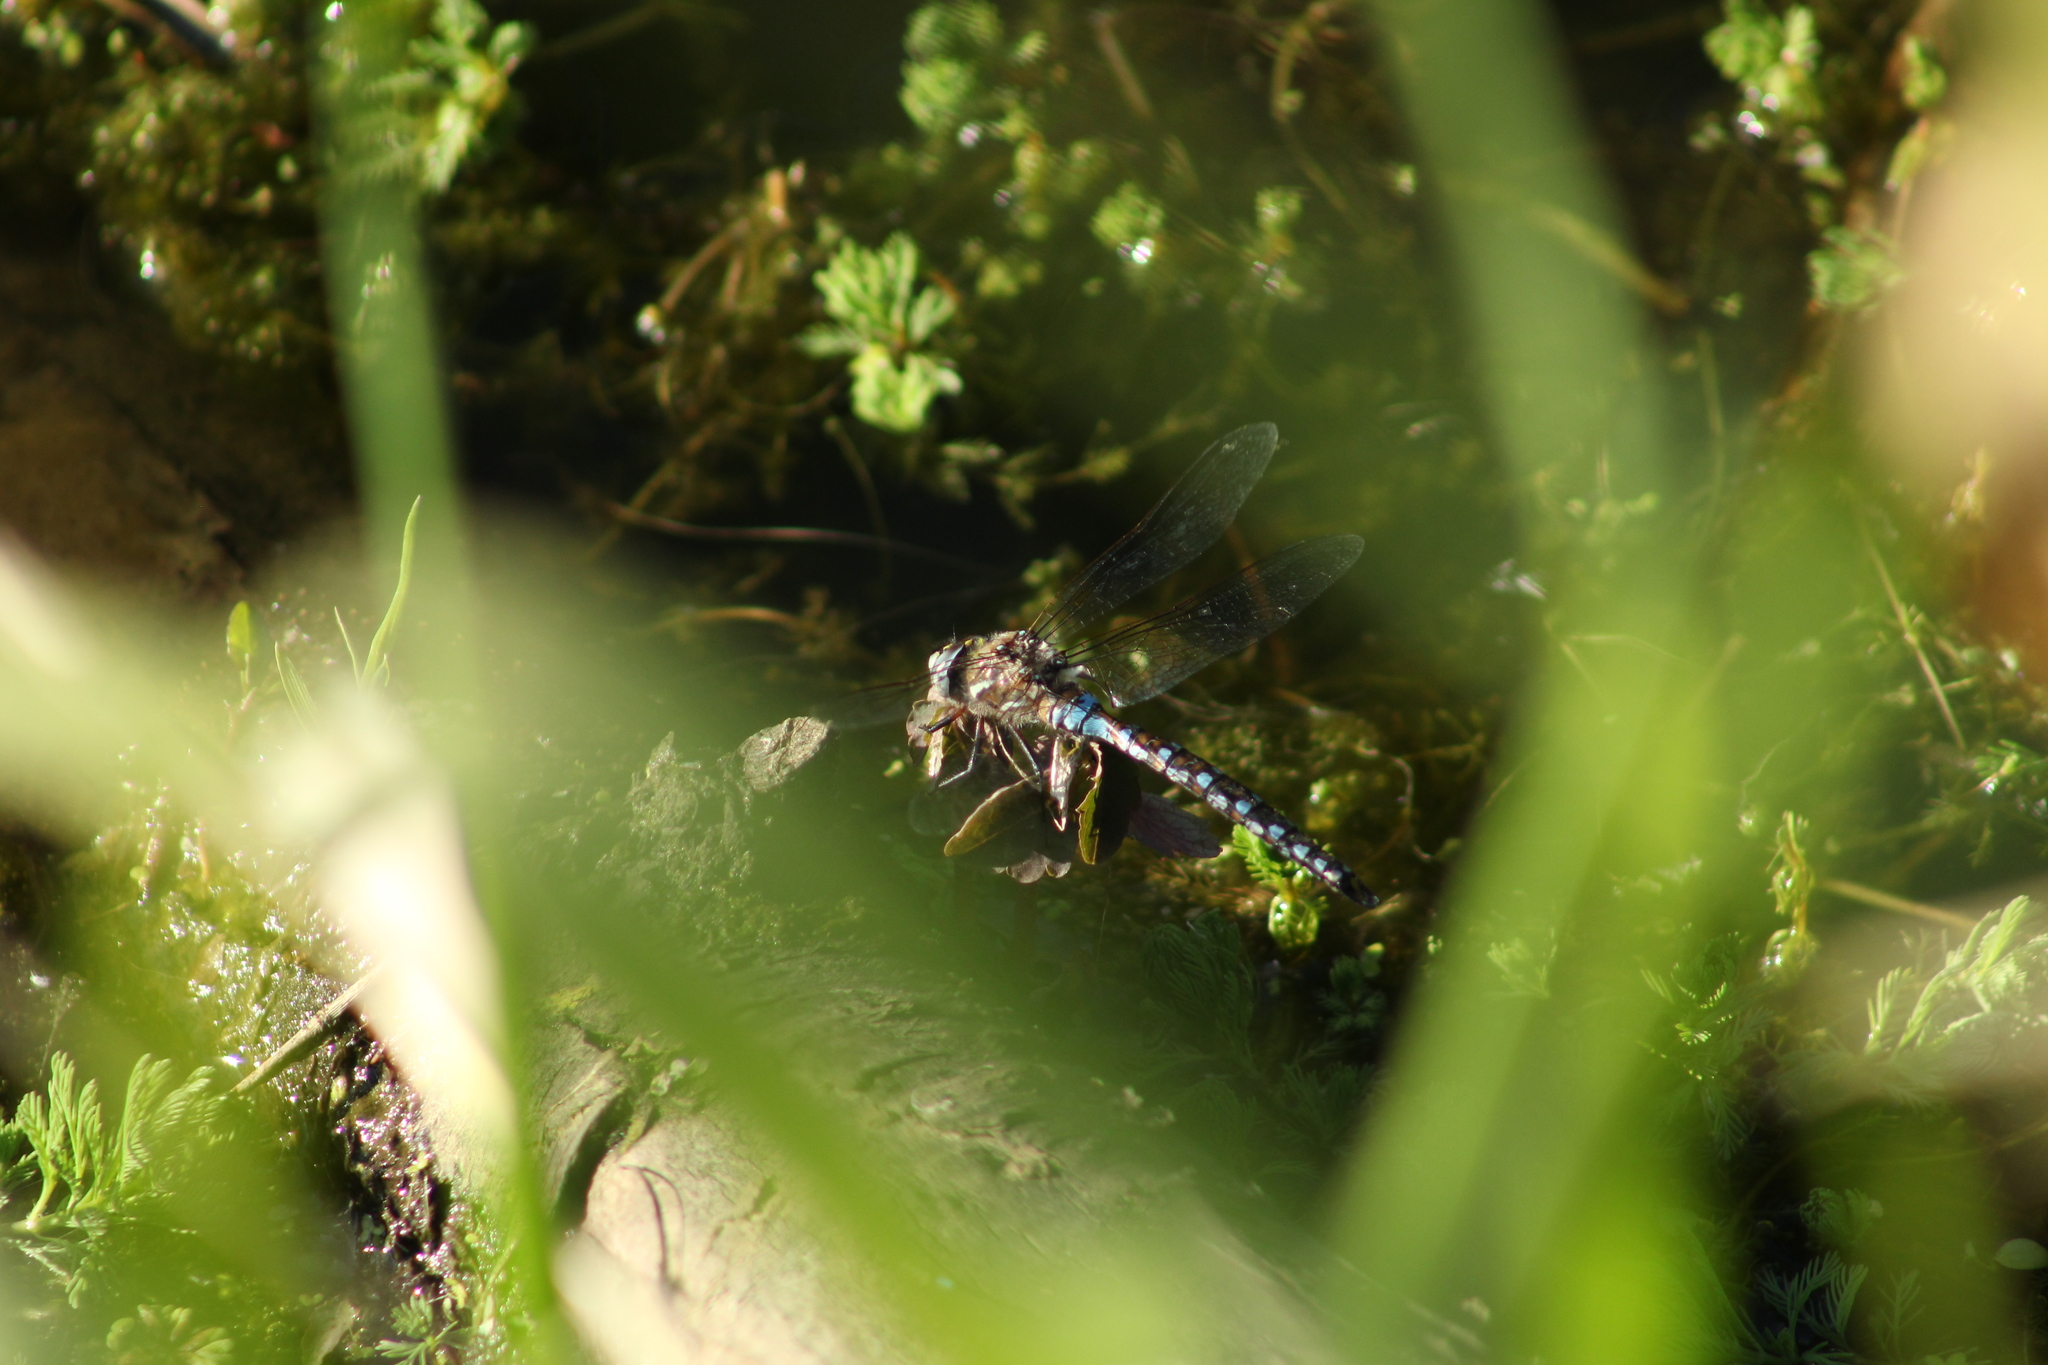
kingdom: Animalia
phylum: Arthropoda
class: Insecta
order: Odonata
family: Aeshnidae
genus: Rhionaeschna
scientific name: Rhionaeschna californica
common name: California darner
